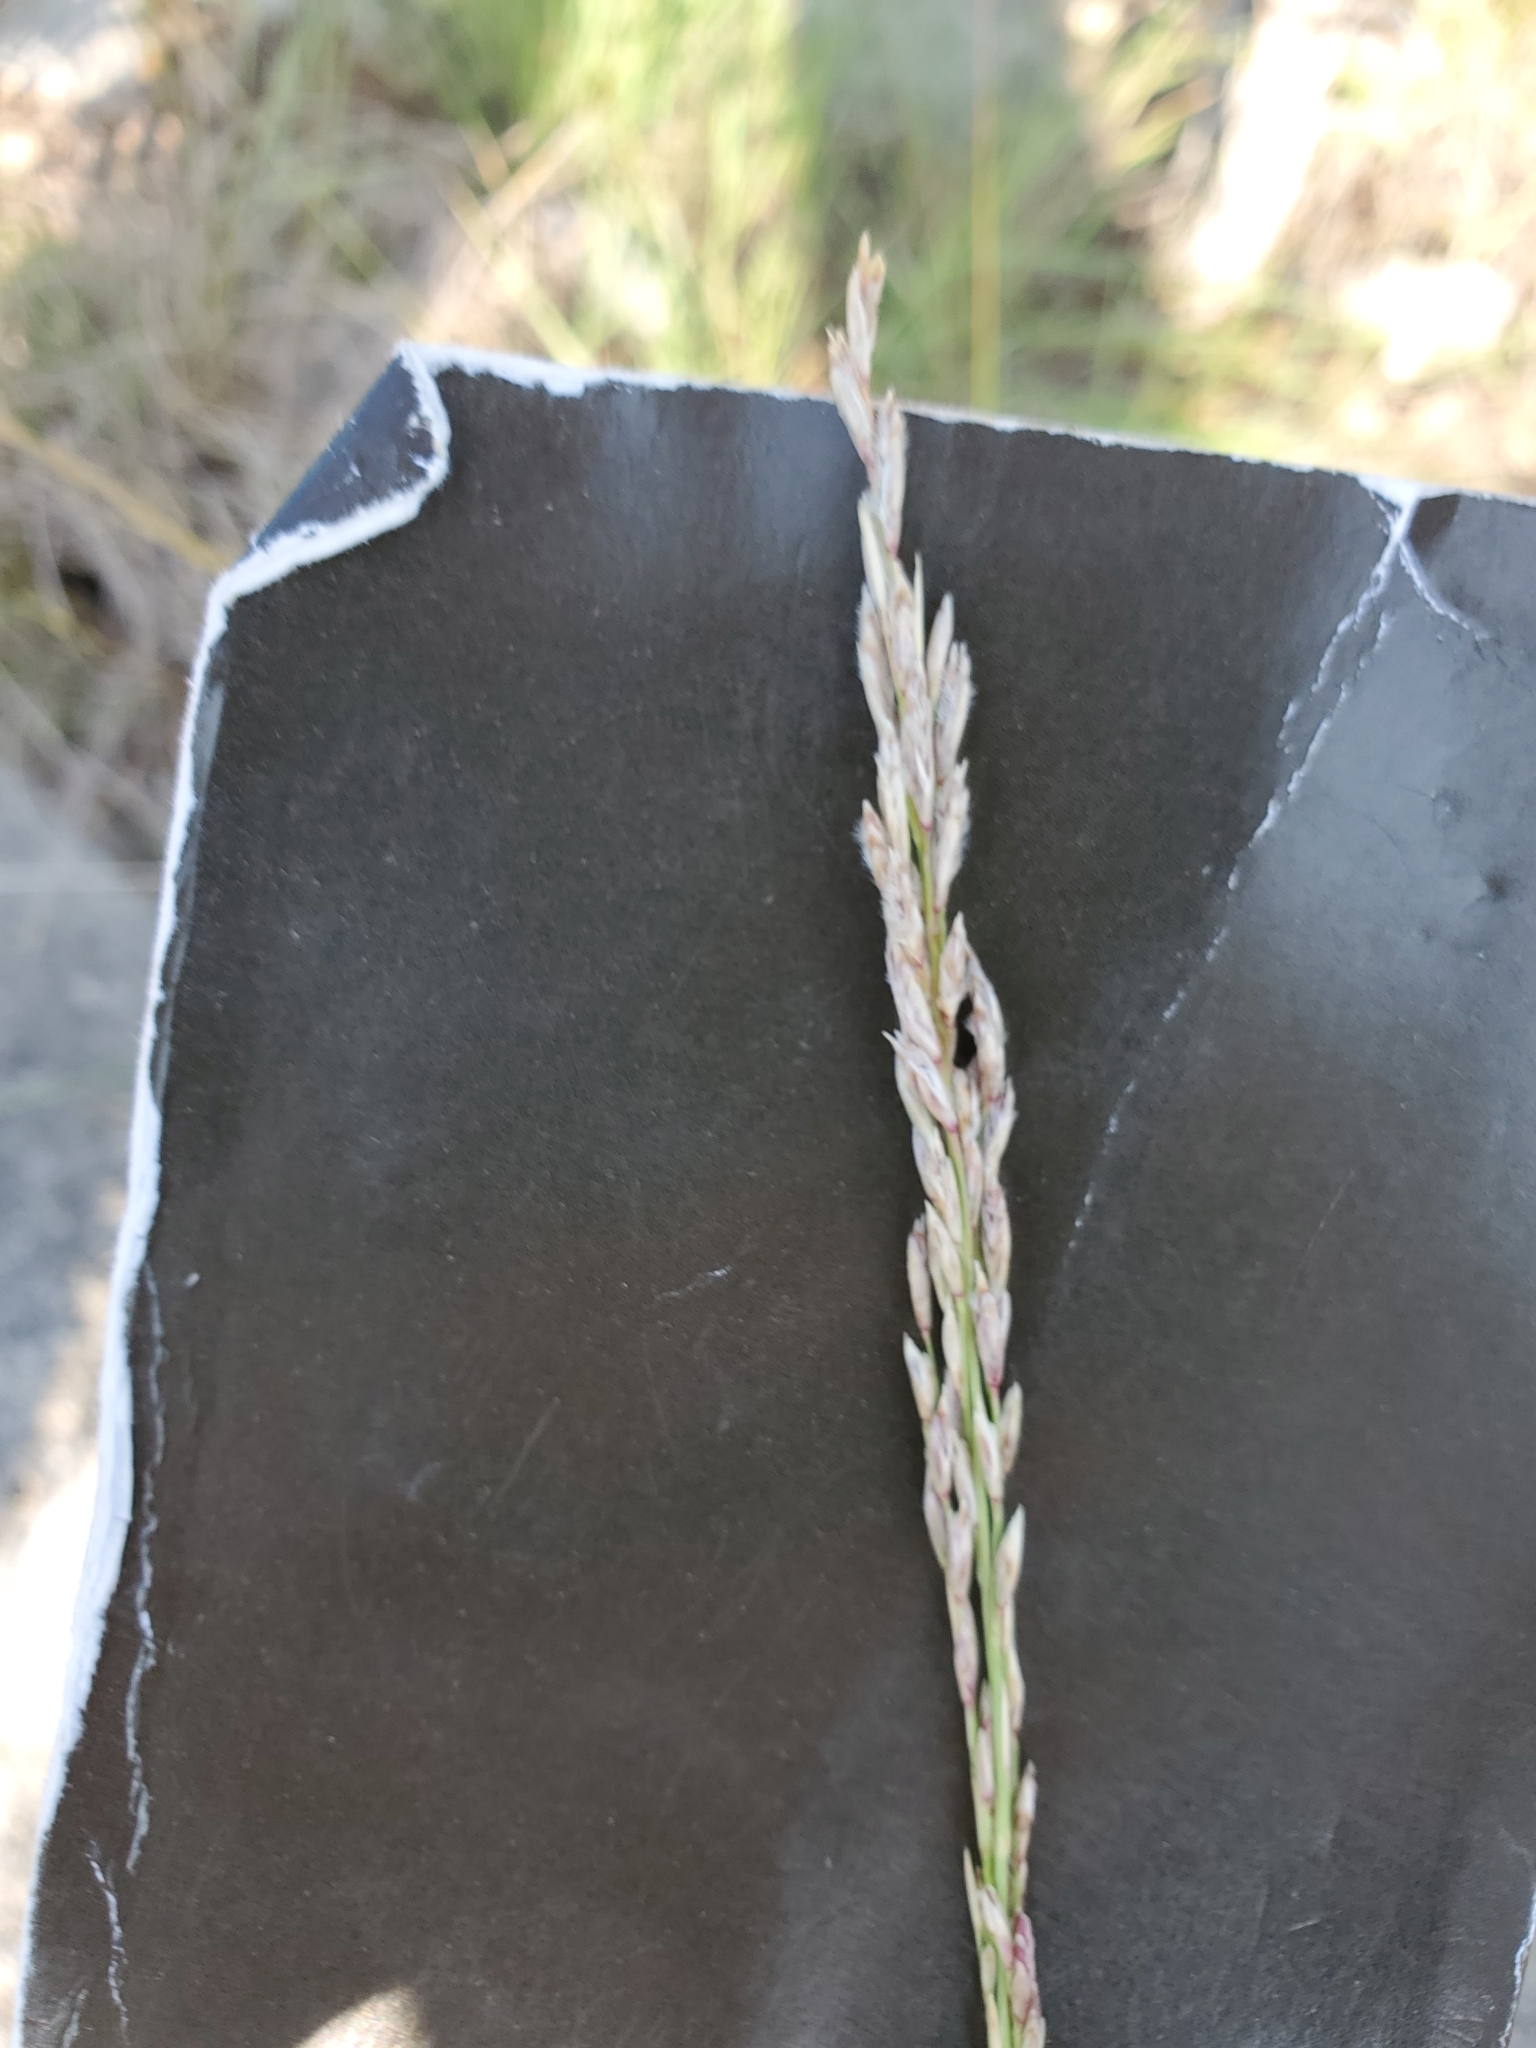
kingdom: Plantae
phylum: Tracheophyta
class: Liliopsida
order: Poales
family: Poaceae
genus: Tridentopsis
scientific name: Tridentopsis mutica
